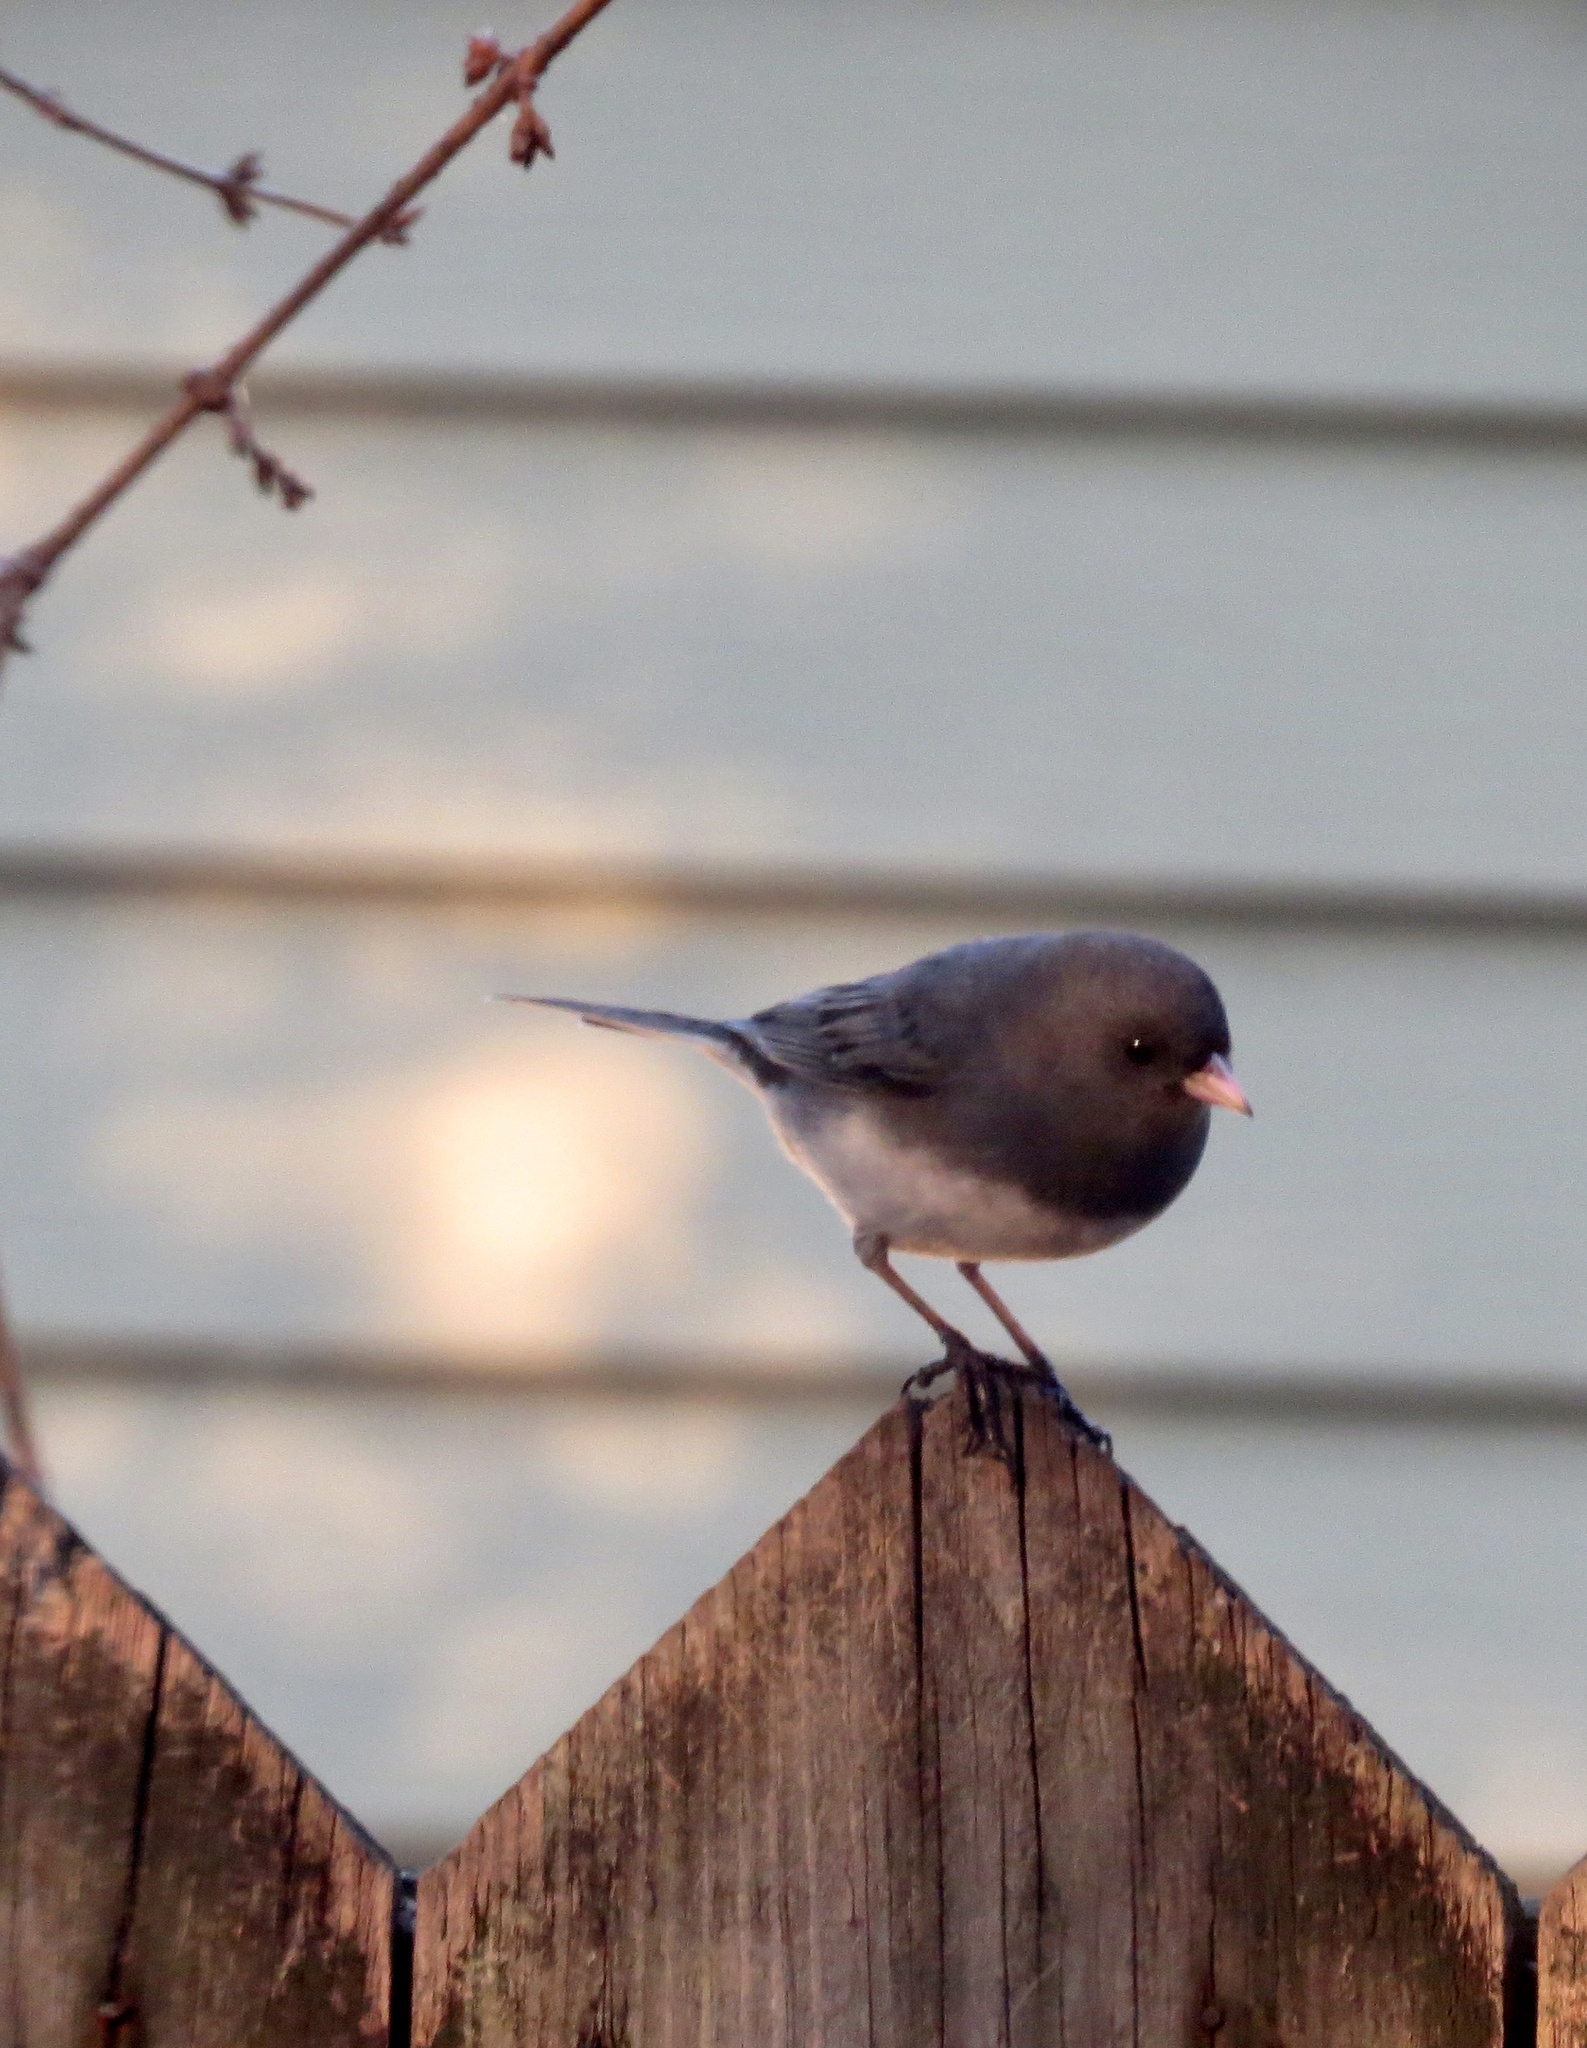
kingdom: Animalia
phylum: Chordata
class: Aves
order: Passeriformes
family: Passerellidae
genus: Junco
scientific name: Junco hyemalis
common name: Dark-eyed junco
